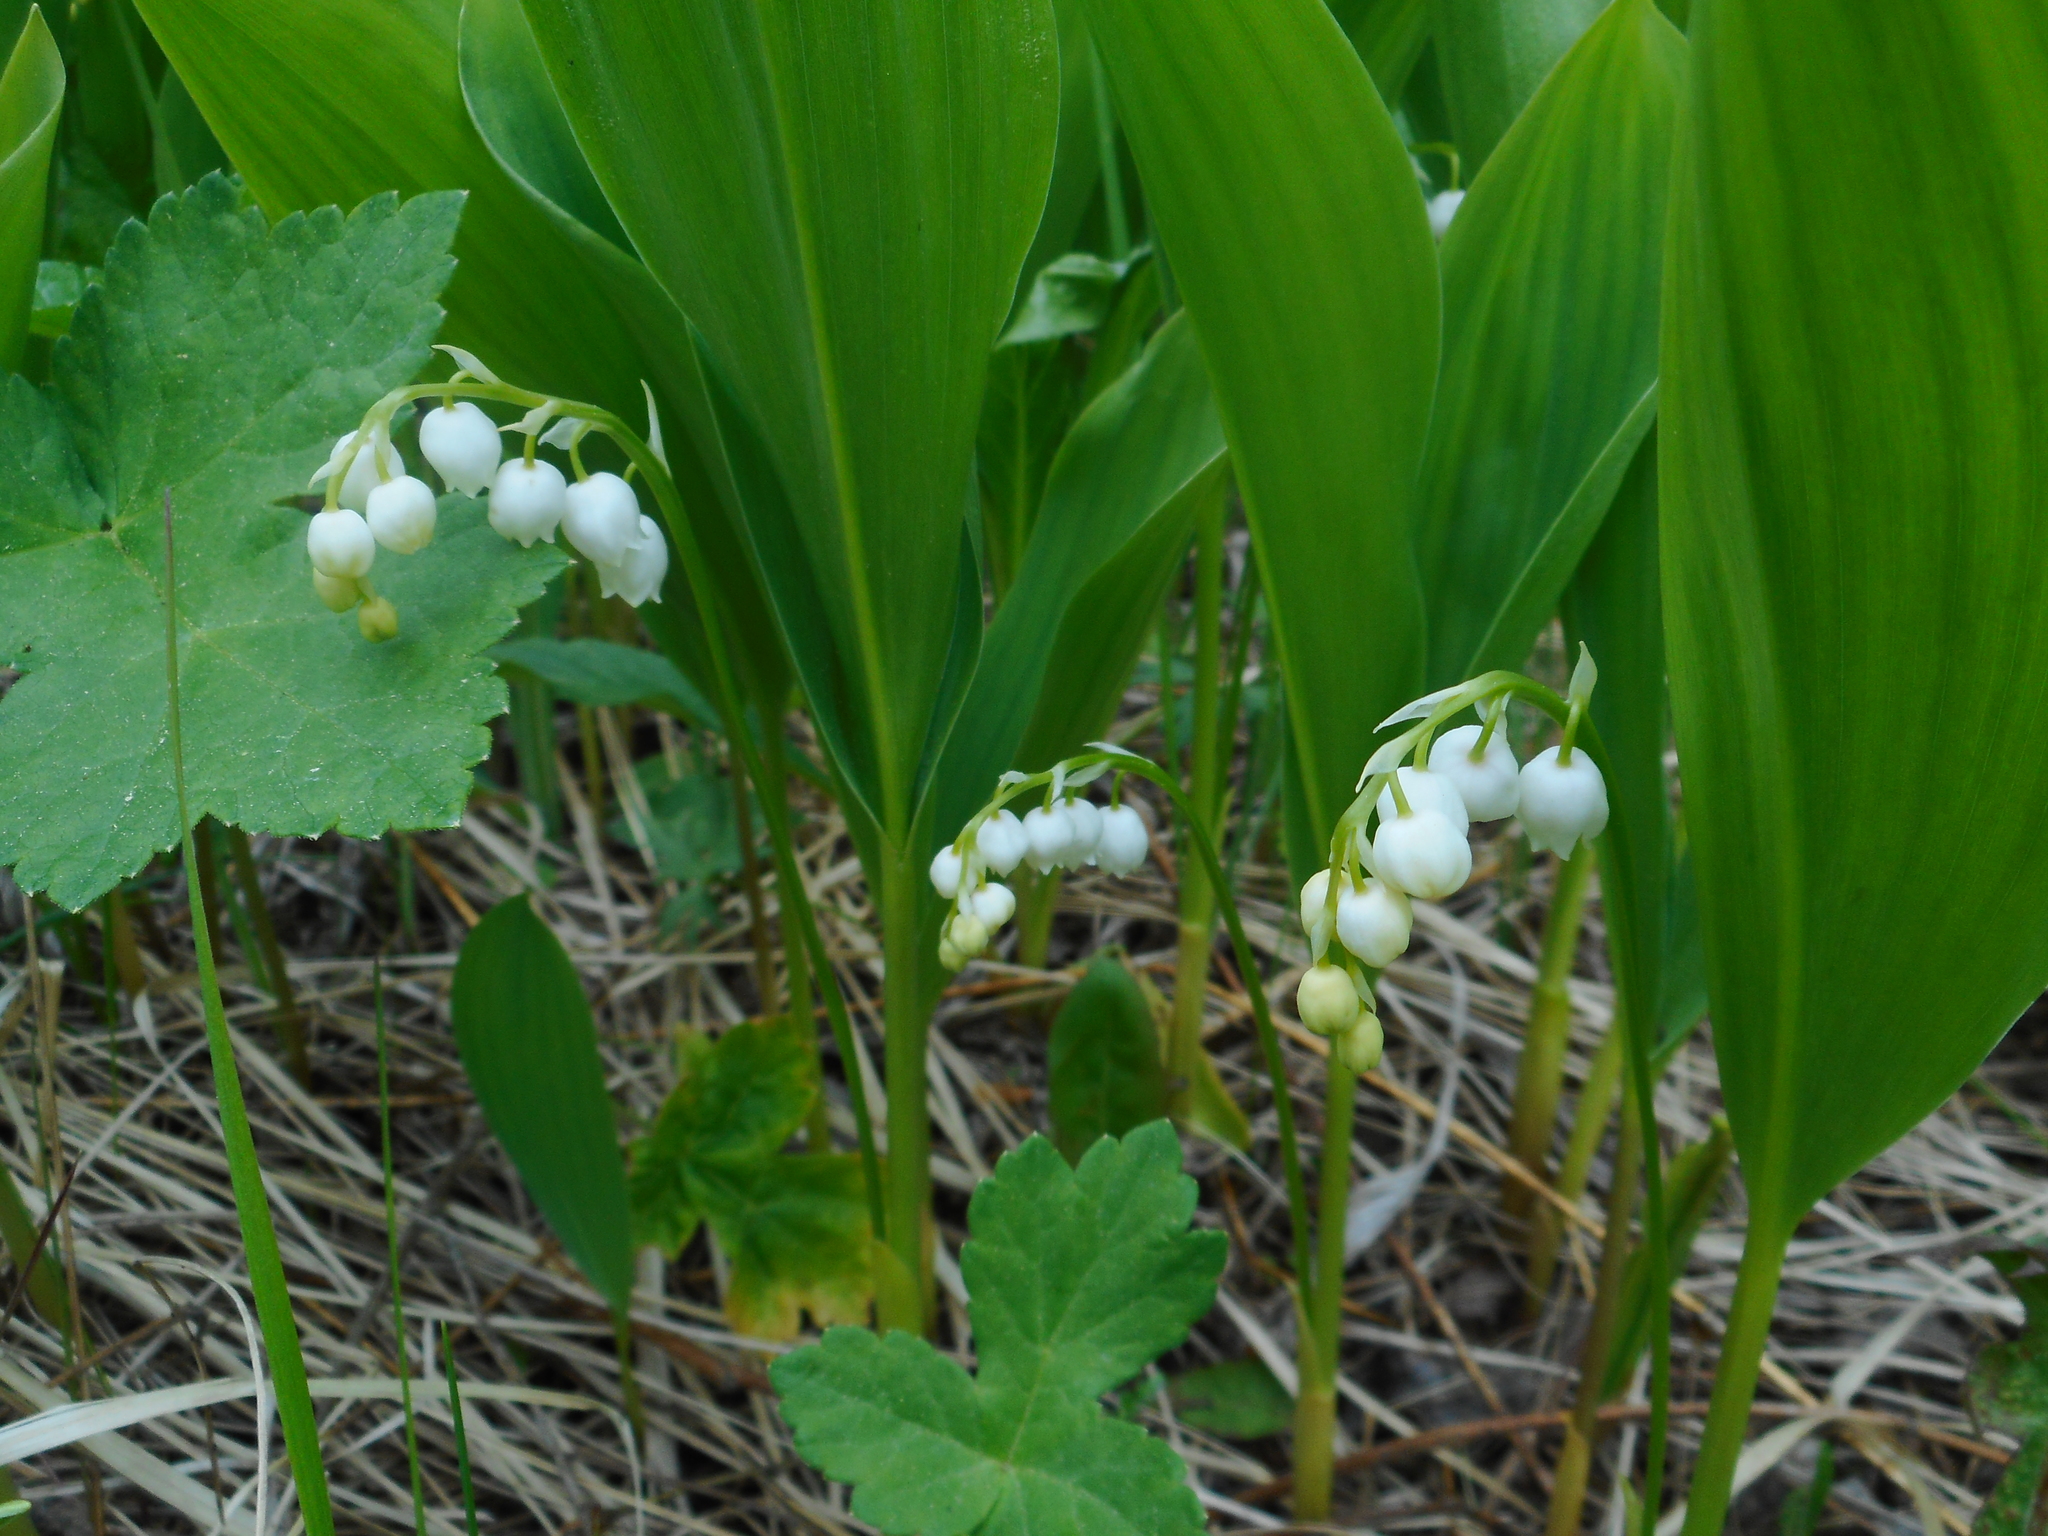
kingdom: Plantae
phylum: Tracheophyta
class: Liliopsida
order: Asparagales
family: Asparagaceae
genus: Convallaria
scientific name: Convallaria majalis
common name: Lily-of-the-valley
